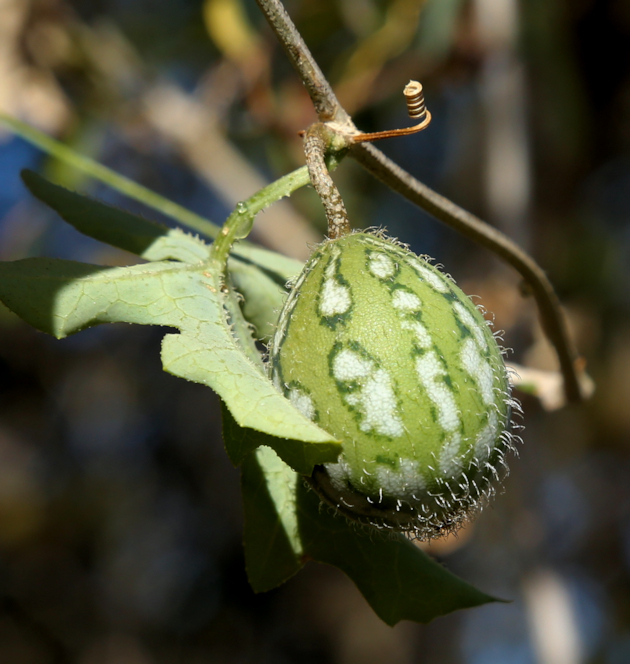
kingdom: Plantae
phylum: Tracheophyta
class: Magnoliopsida
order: Cucurbitales
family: Cucurbitaceae
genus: Coccinia
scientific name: Coccinia rehmannii
